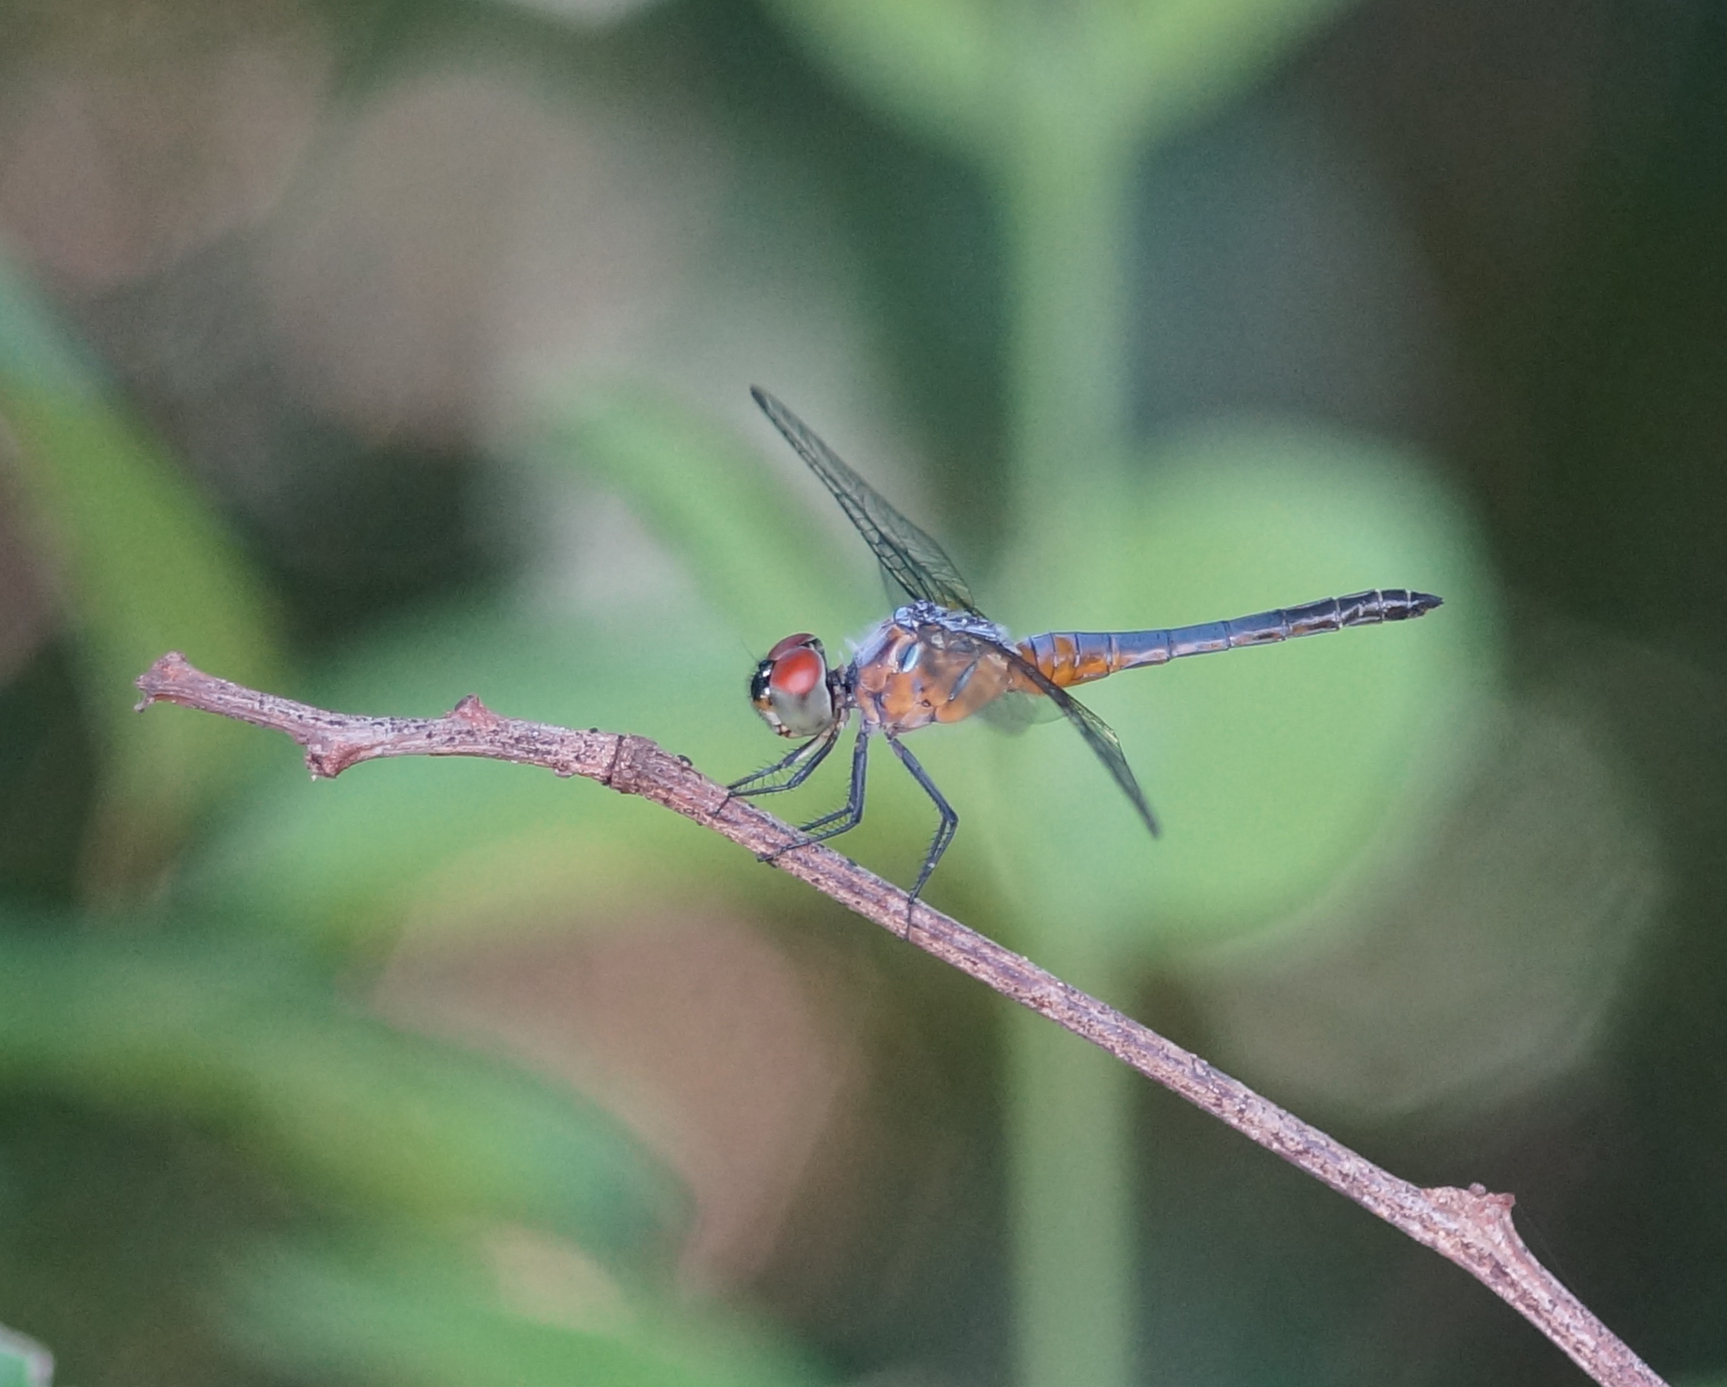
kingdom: Animalia
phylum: Arthropoda
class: Insecta
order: Odonata
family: Libellulidae
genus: Brachydiplax
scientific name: Brachydiplax chalybea
